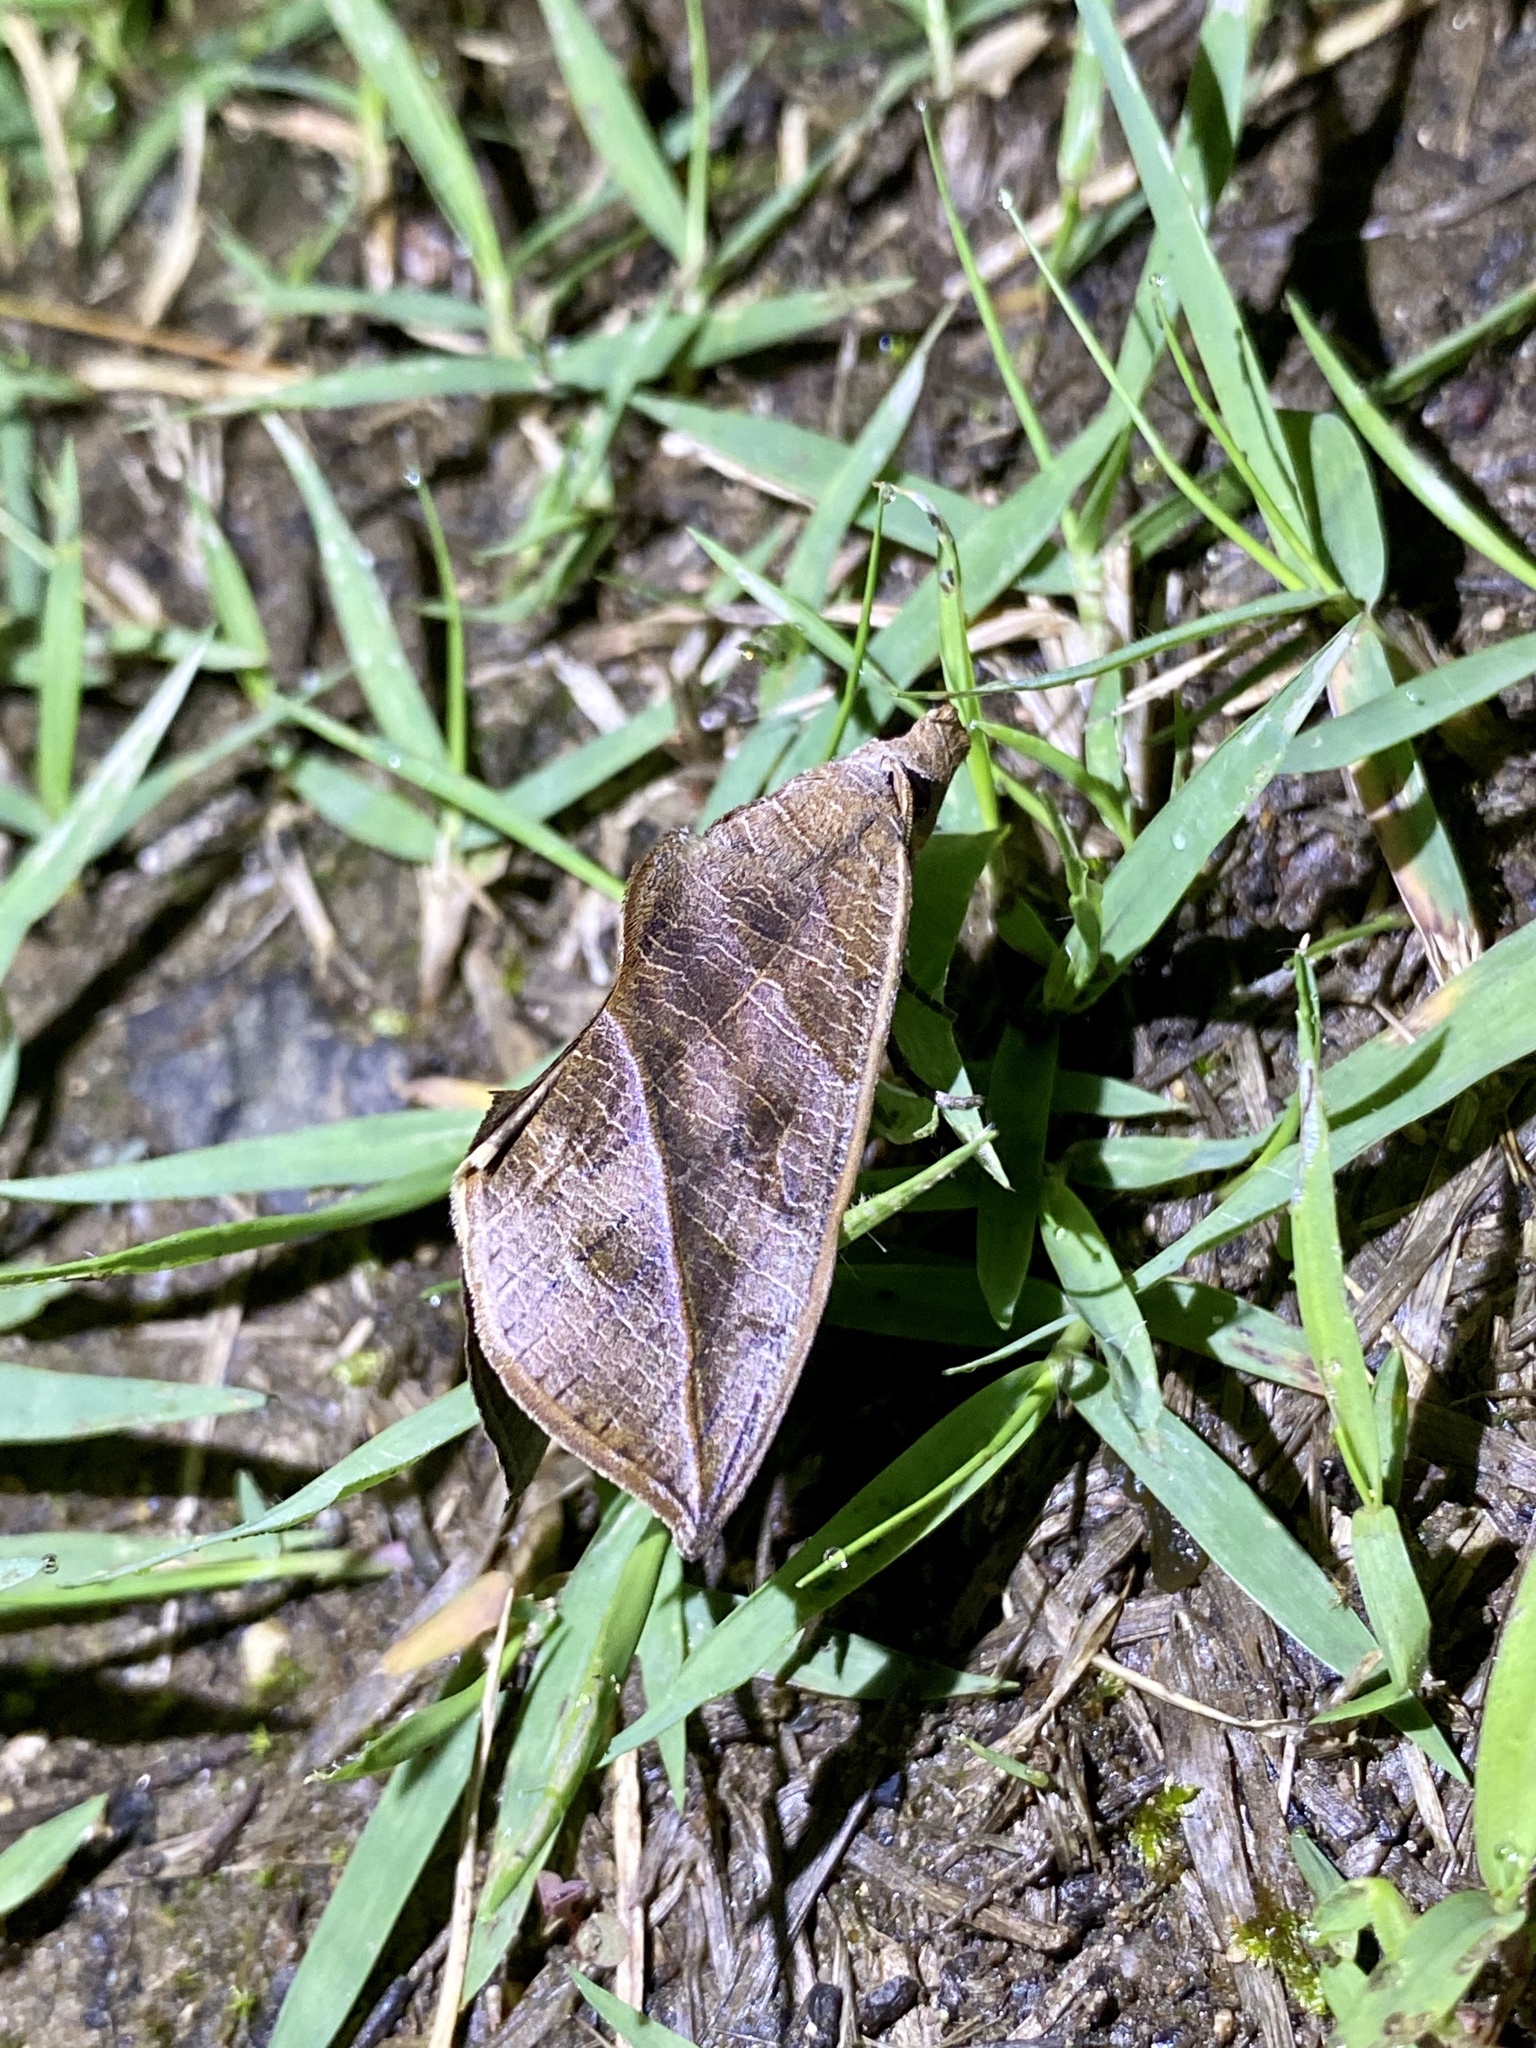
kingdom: Animalia
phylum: Arthropoda
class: Insecta
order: Lepidoptera
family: Erebidae
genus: Calyptra
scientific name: Calyptra gruesa
